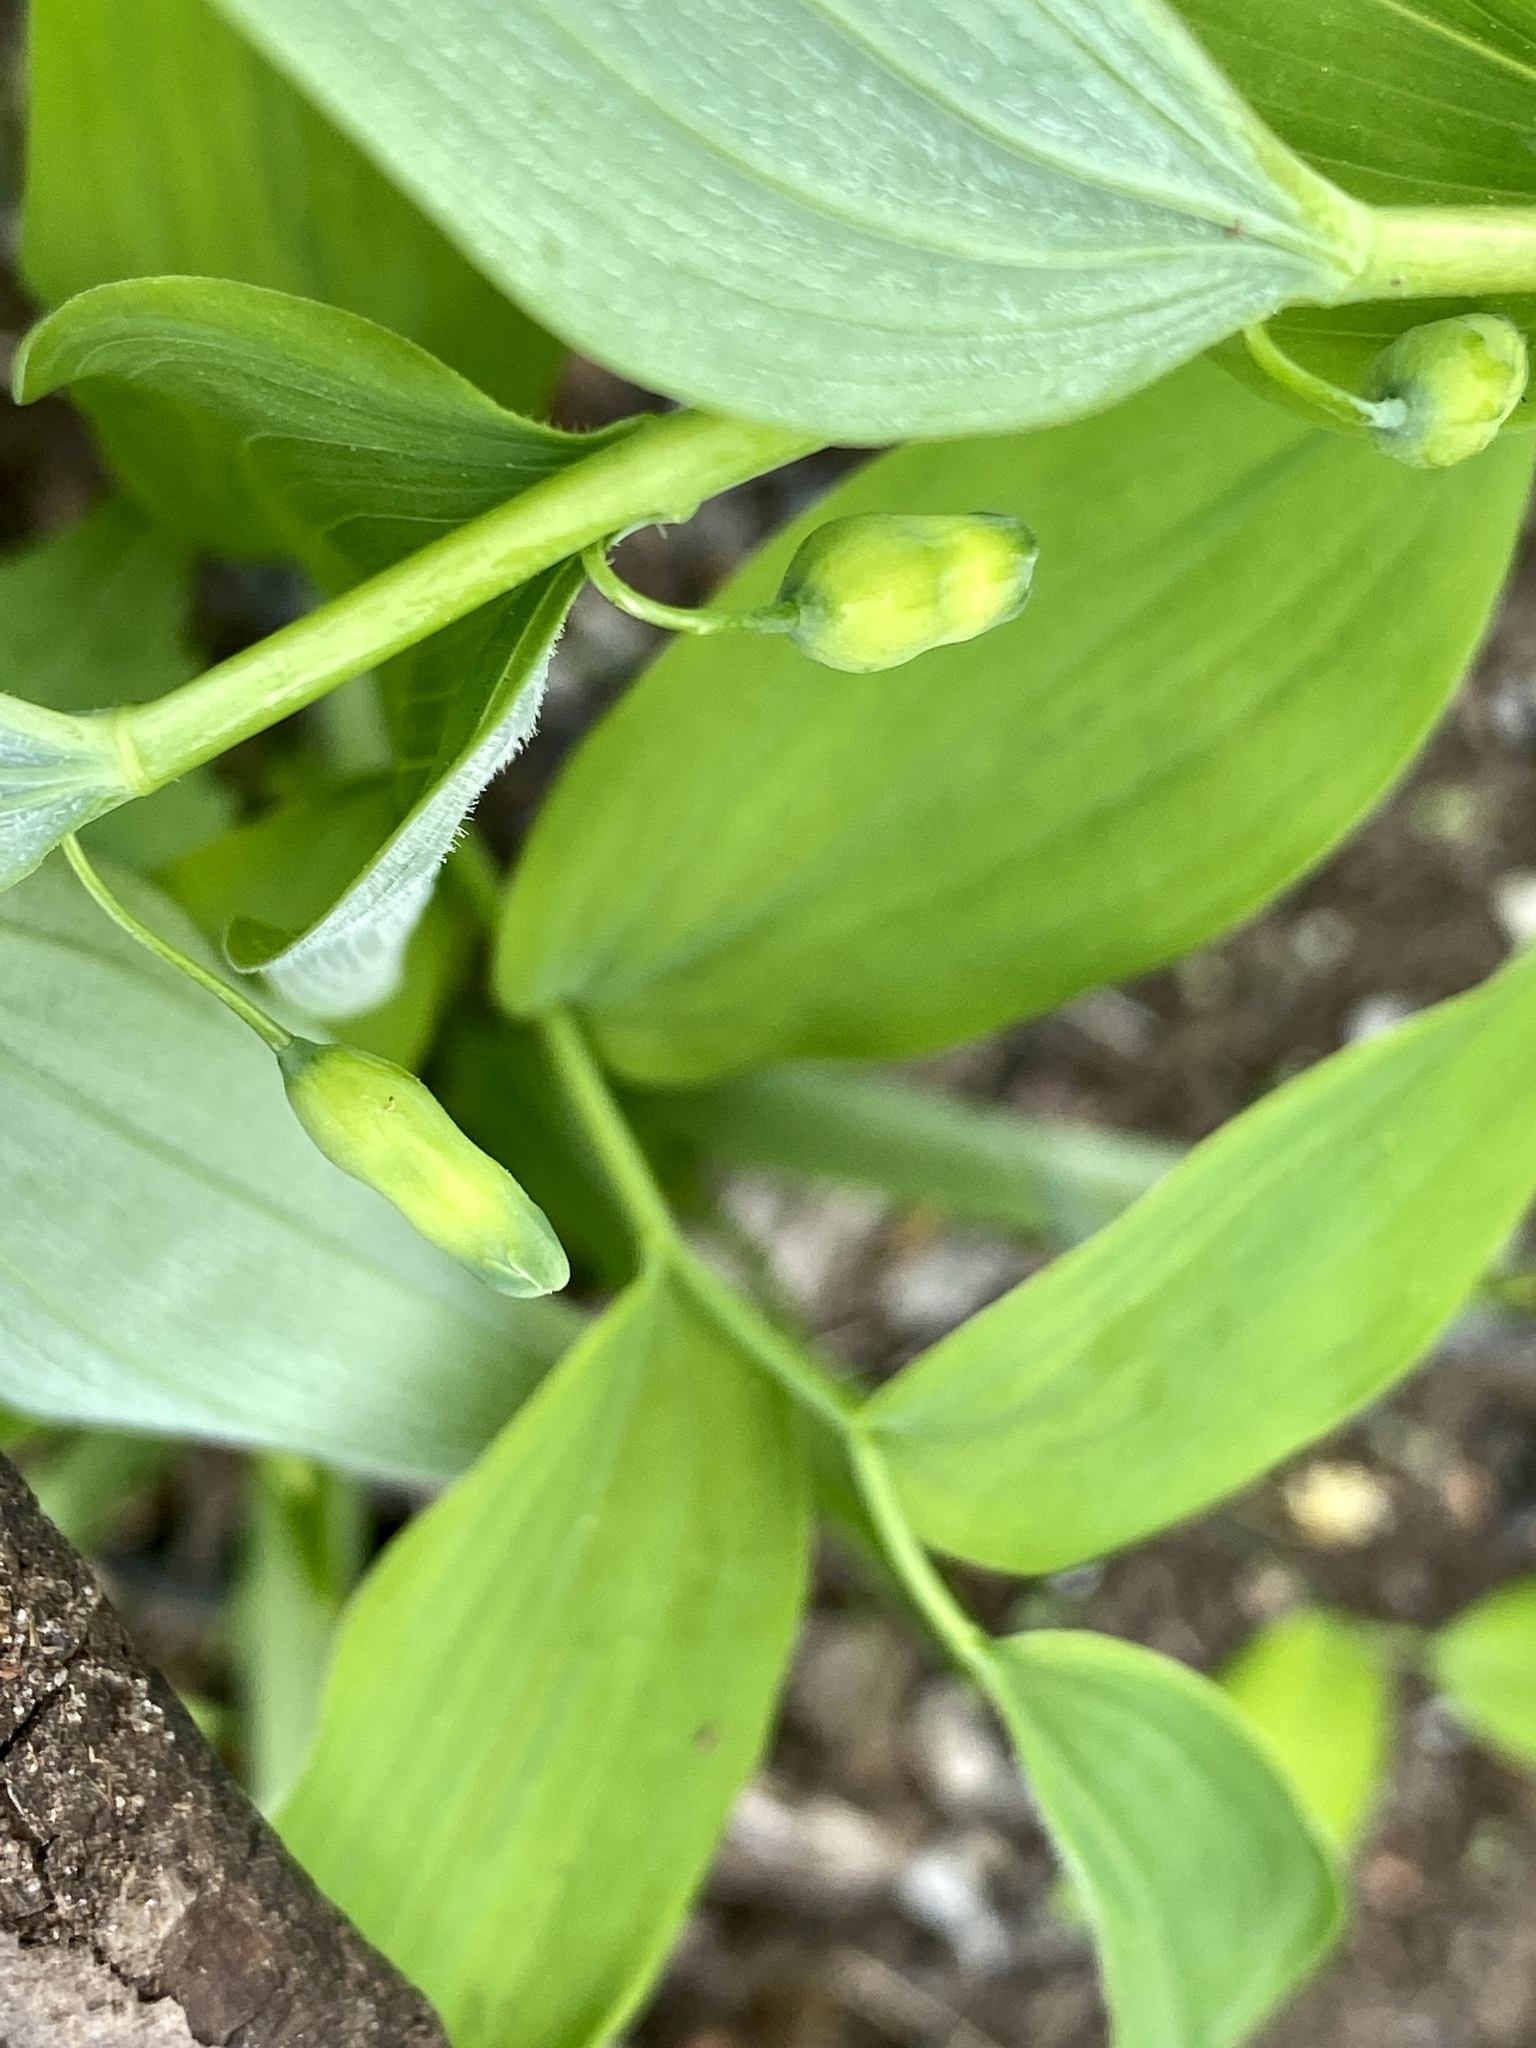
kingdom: Plantae
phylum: Tracheophyta
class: Liliopsida
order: Asparagales
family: Asparagaceae
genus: Polygonatum
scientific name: Polygonatum pubescens
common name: Downy solomon's seal
